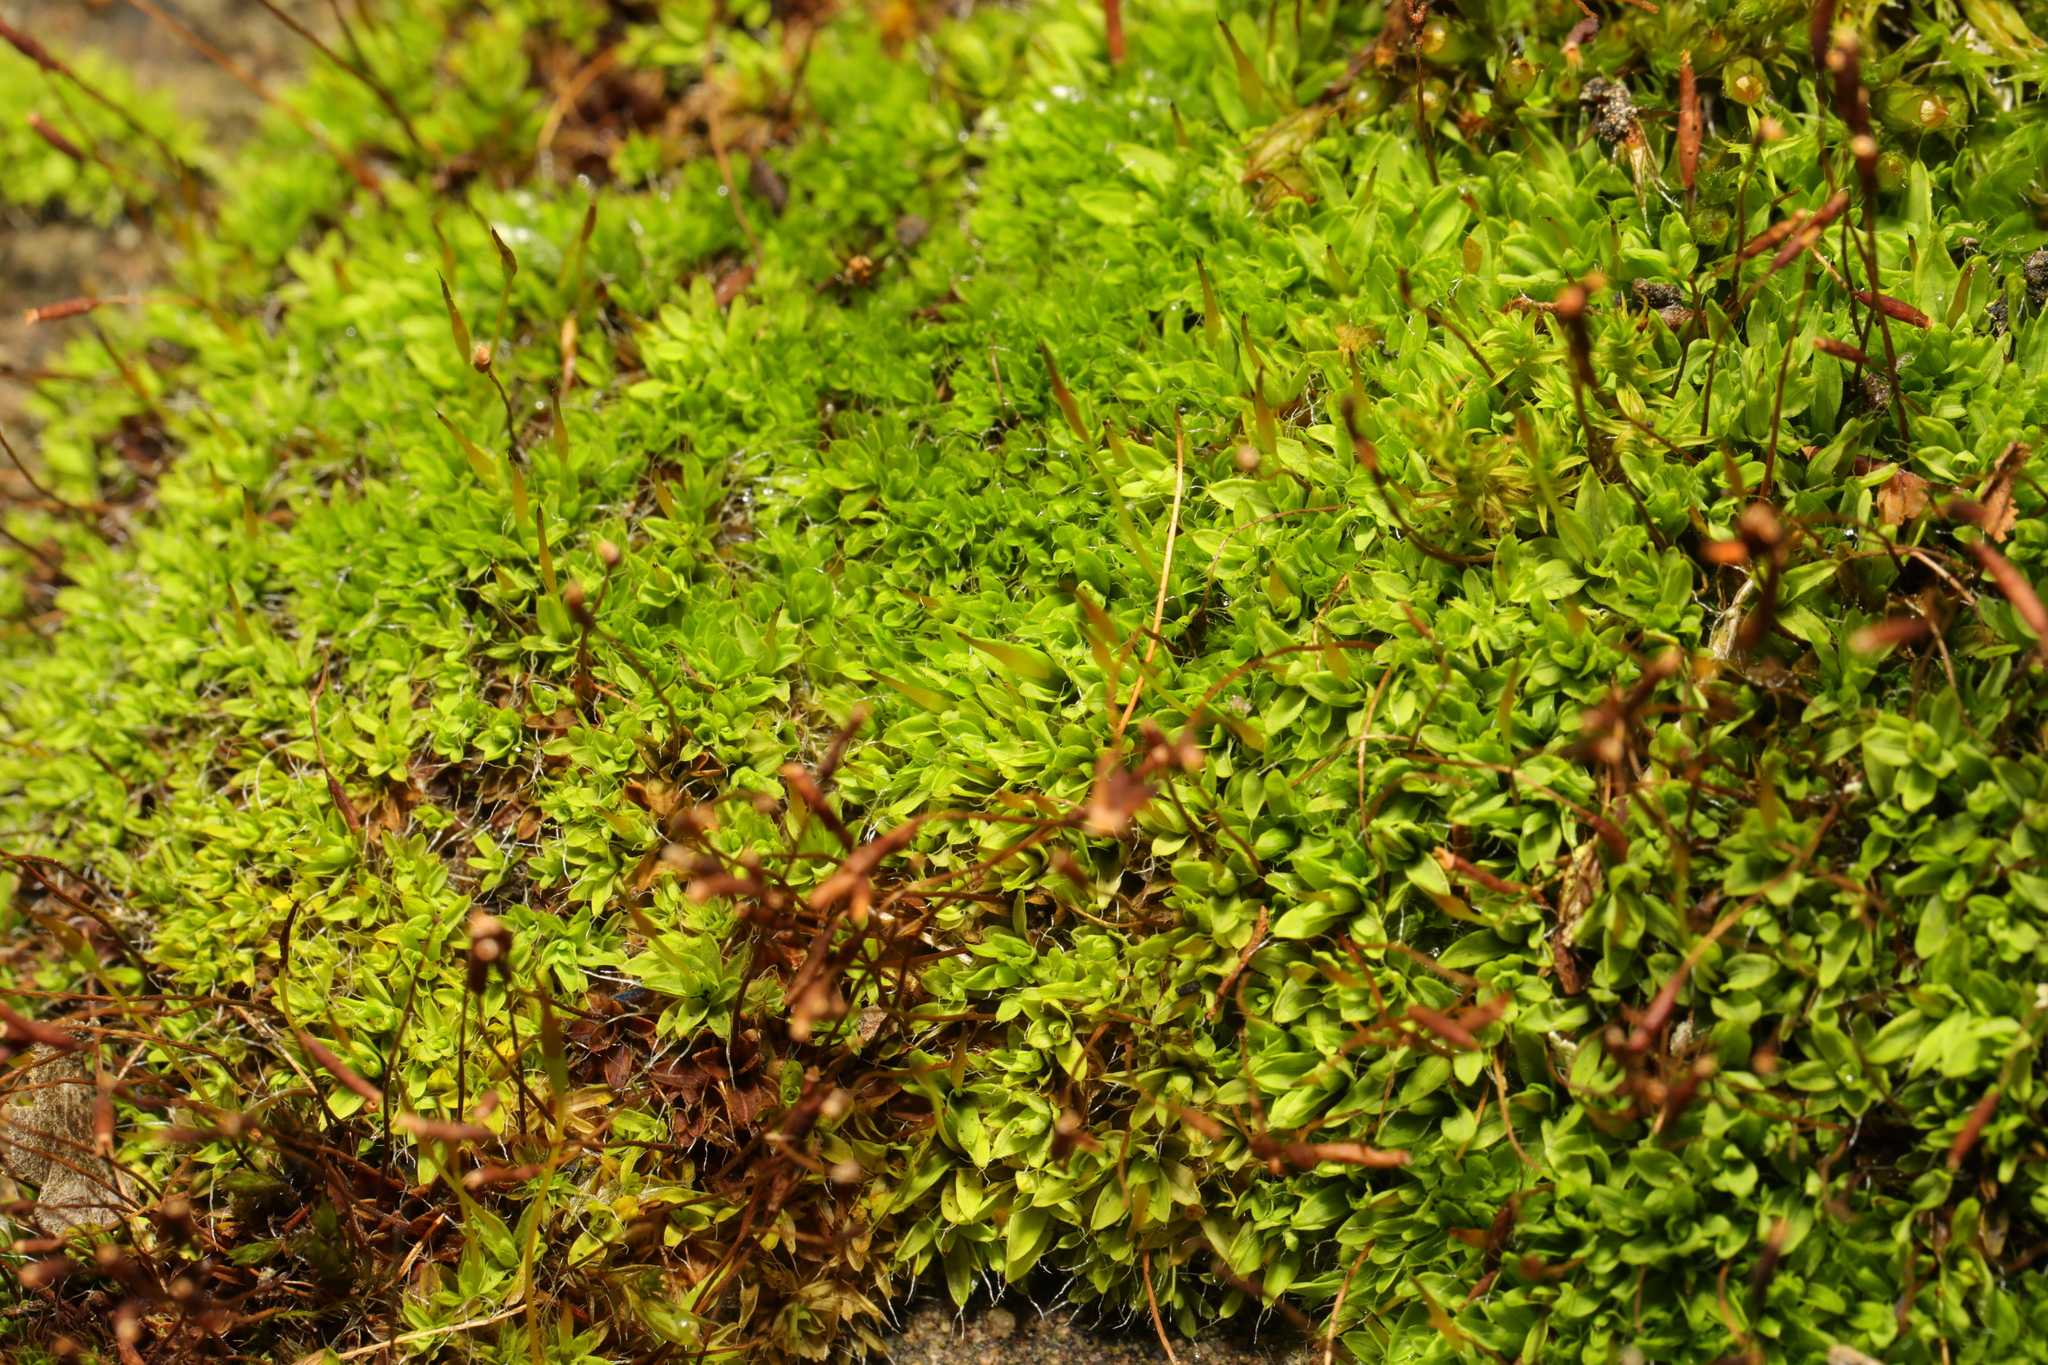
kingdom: Plantae
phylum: Bryophyta
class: Bryopsida
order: Pottiales
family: Pottiaceae
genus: Tortula
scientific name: Tortula muralis
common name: Wall screw-moss
